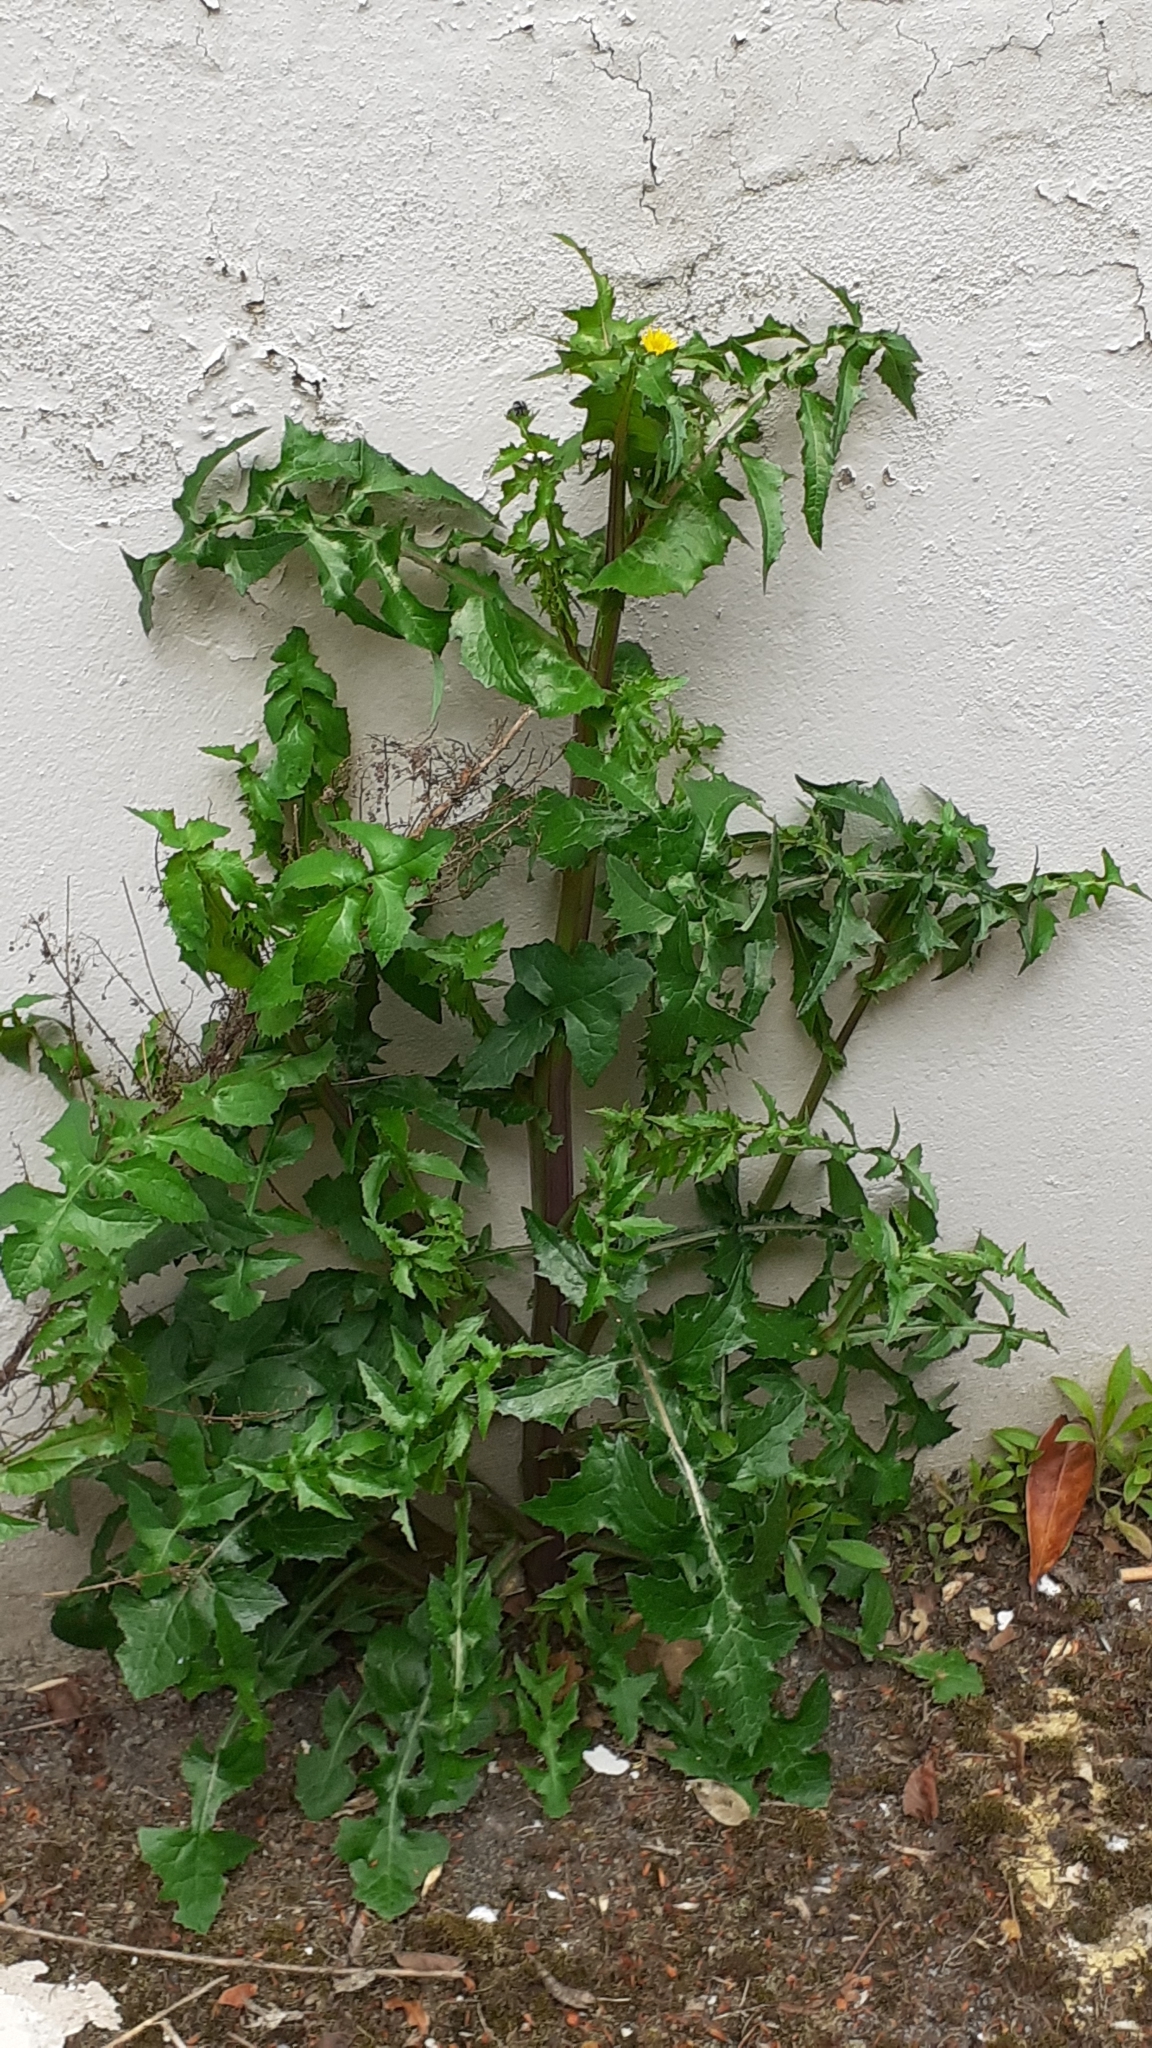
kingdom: Plantae
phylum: Tracheophyta
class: Magnoliopsida
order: Asterales
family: Asteraceae
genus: Sonchus
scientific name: Sonchus asper
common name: Prickly sow-thistle
